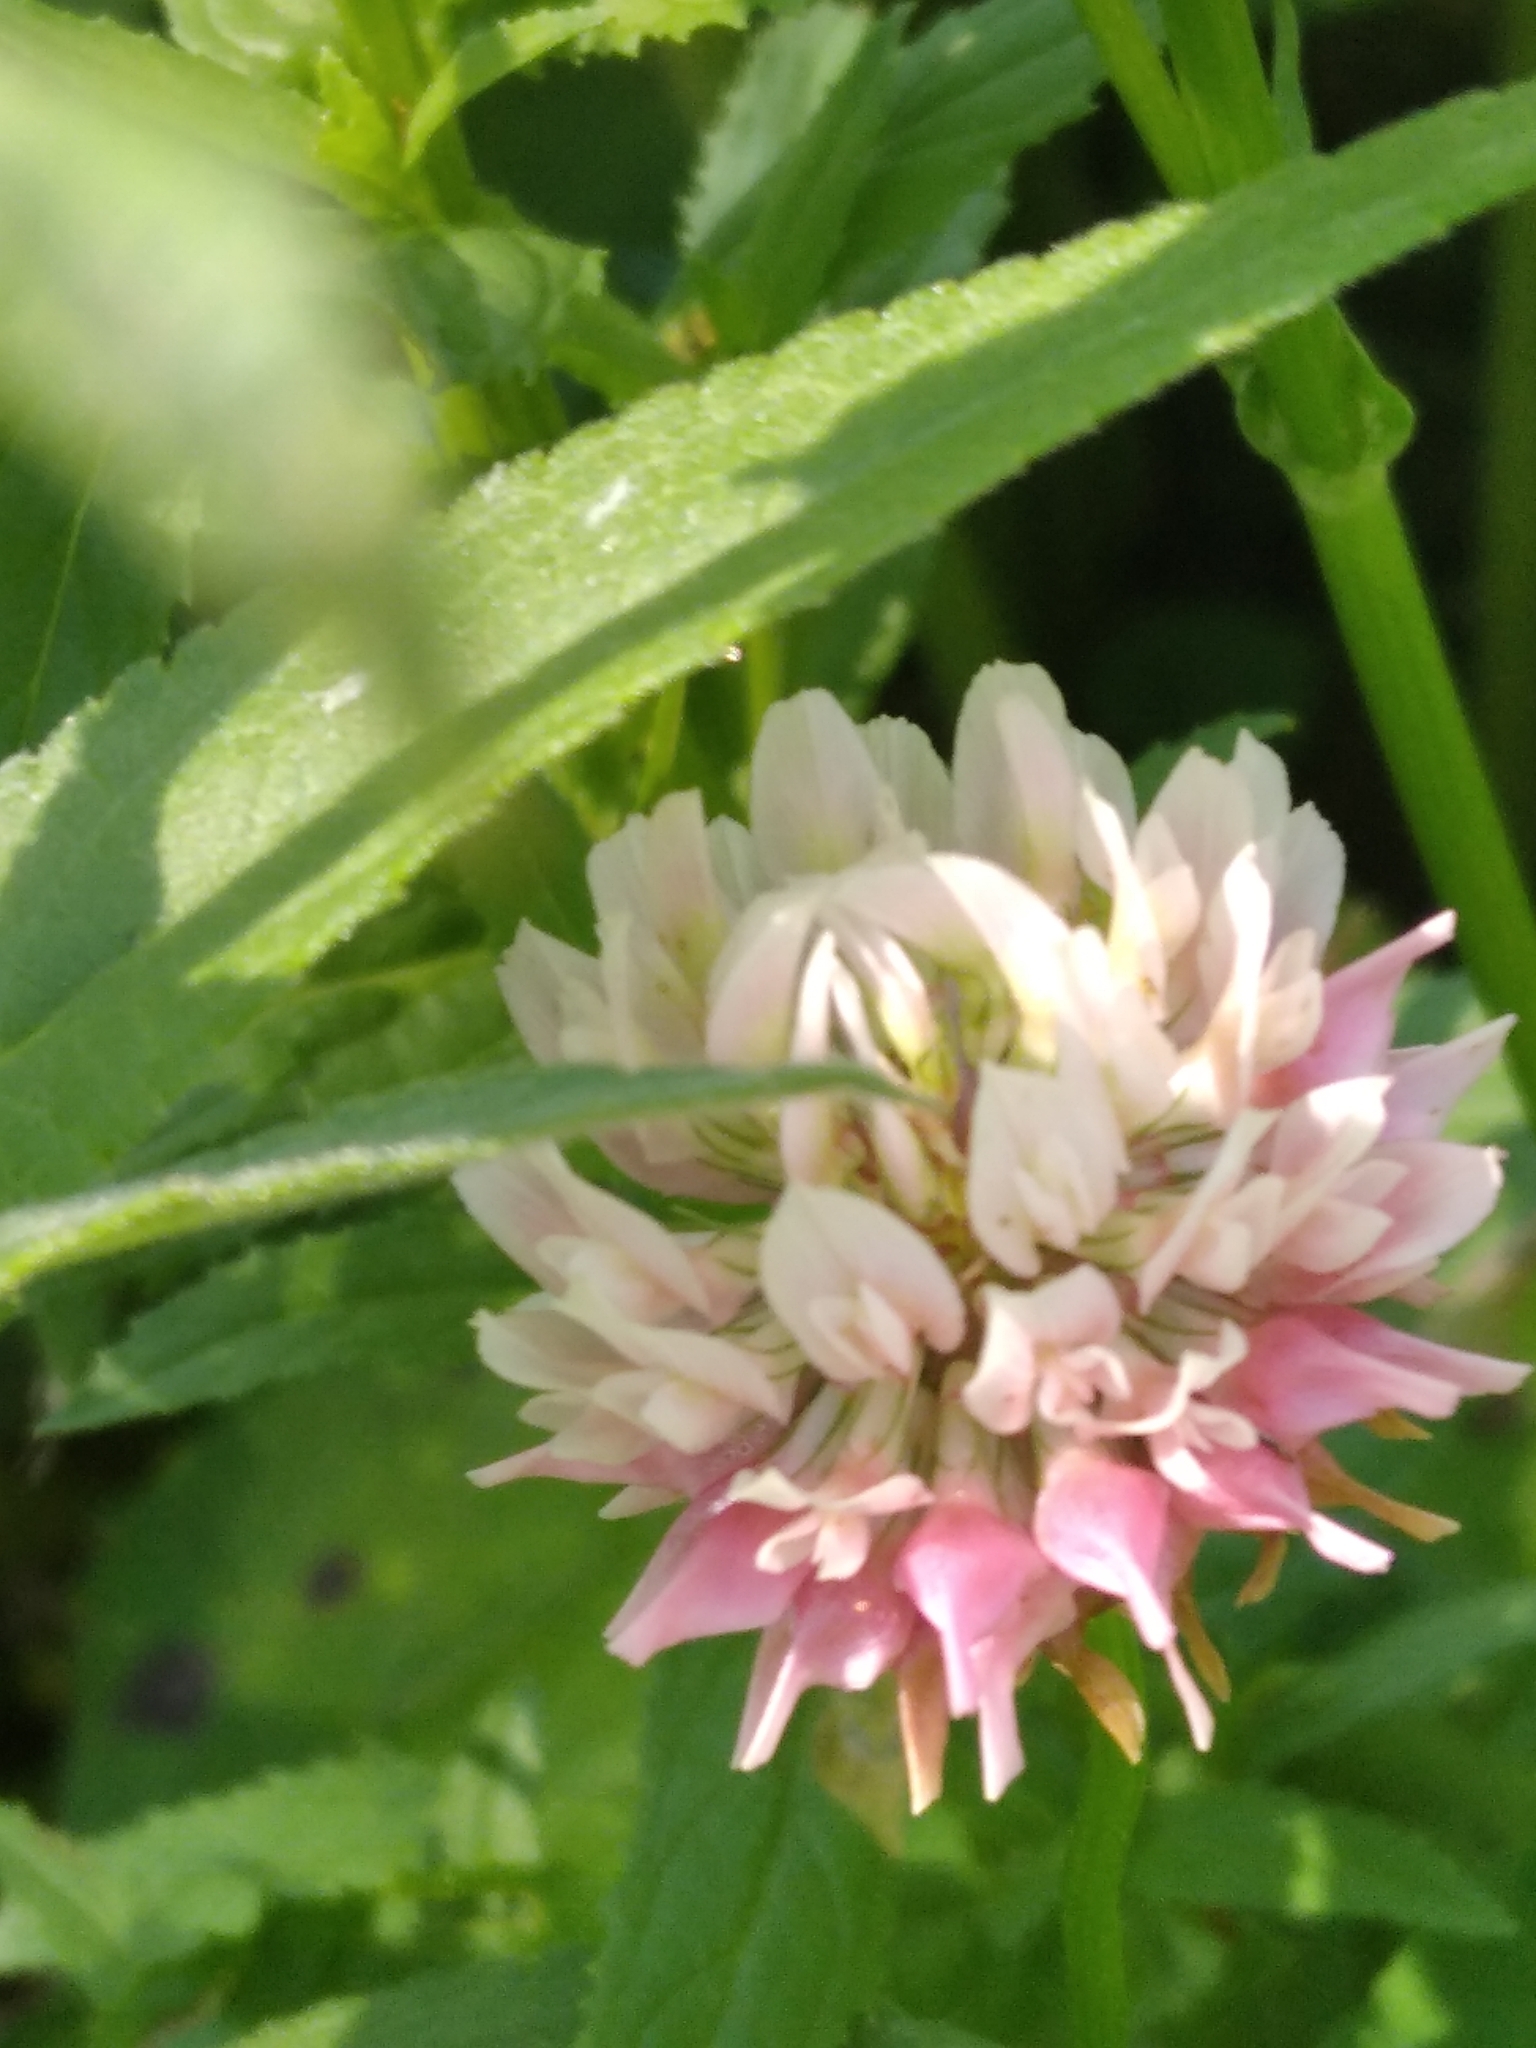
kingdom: Plantae
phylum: Tracheophyta
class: Magnoliopsida
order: Fabales
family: Fabaceae
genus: Trifolium
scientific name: Trifolium hybridum
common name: Alsike clover
